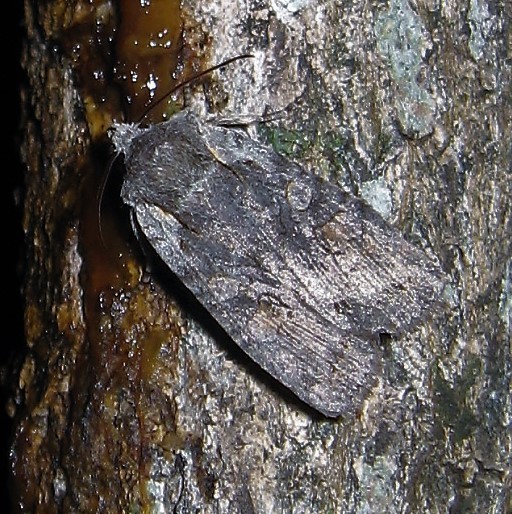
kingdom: Animalia
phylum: Arthropoda
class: Insecta
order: Lepidoptera
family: Noctuidae
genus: Lithophane
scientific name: Lithophane antennata
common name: Ashen pinion
